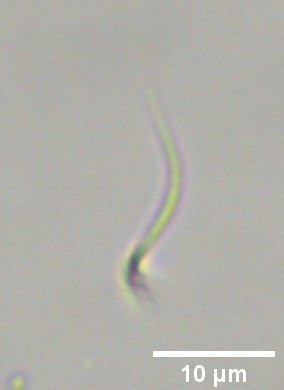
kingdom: Plantae
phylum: Chlorophyta
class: Chlorophyceae
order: Sphaeropleales
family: Selenastraceae
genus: Monoraphidium
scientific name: Monoraphidium contortum
